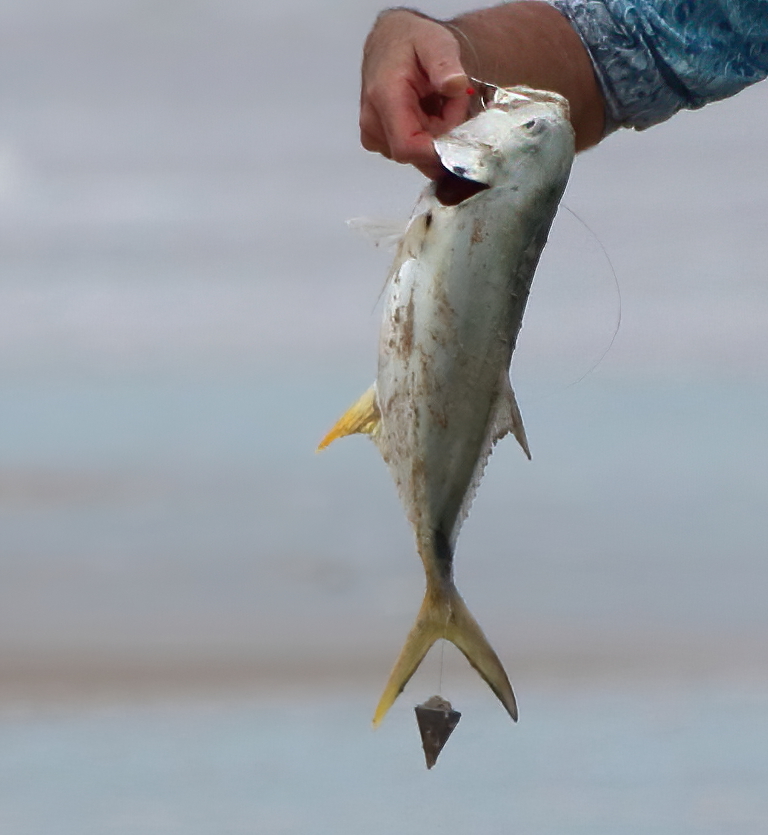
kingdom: Animalia
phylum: Chordata
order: Perciformes
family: Carangidae
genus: Caranx
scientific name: Caranx hippos
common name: Common jack
